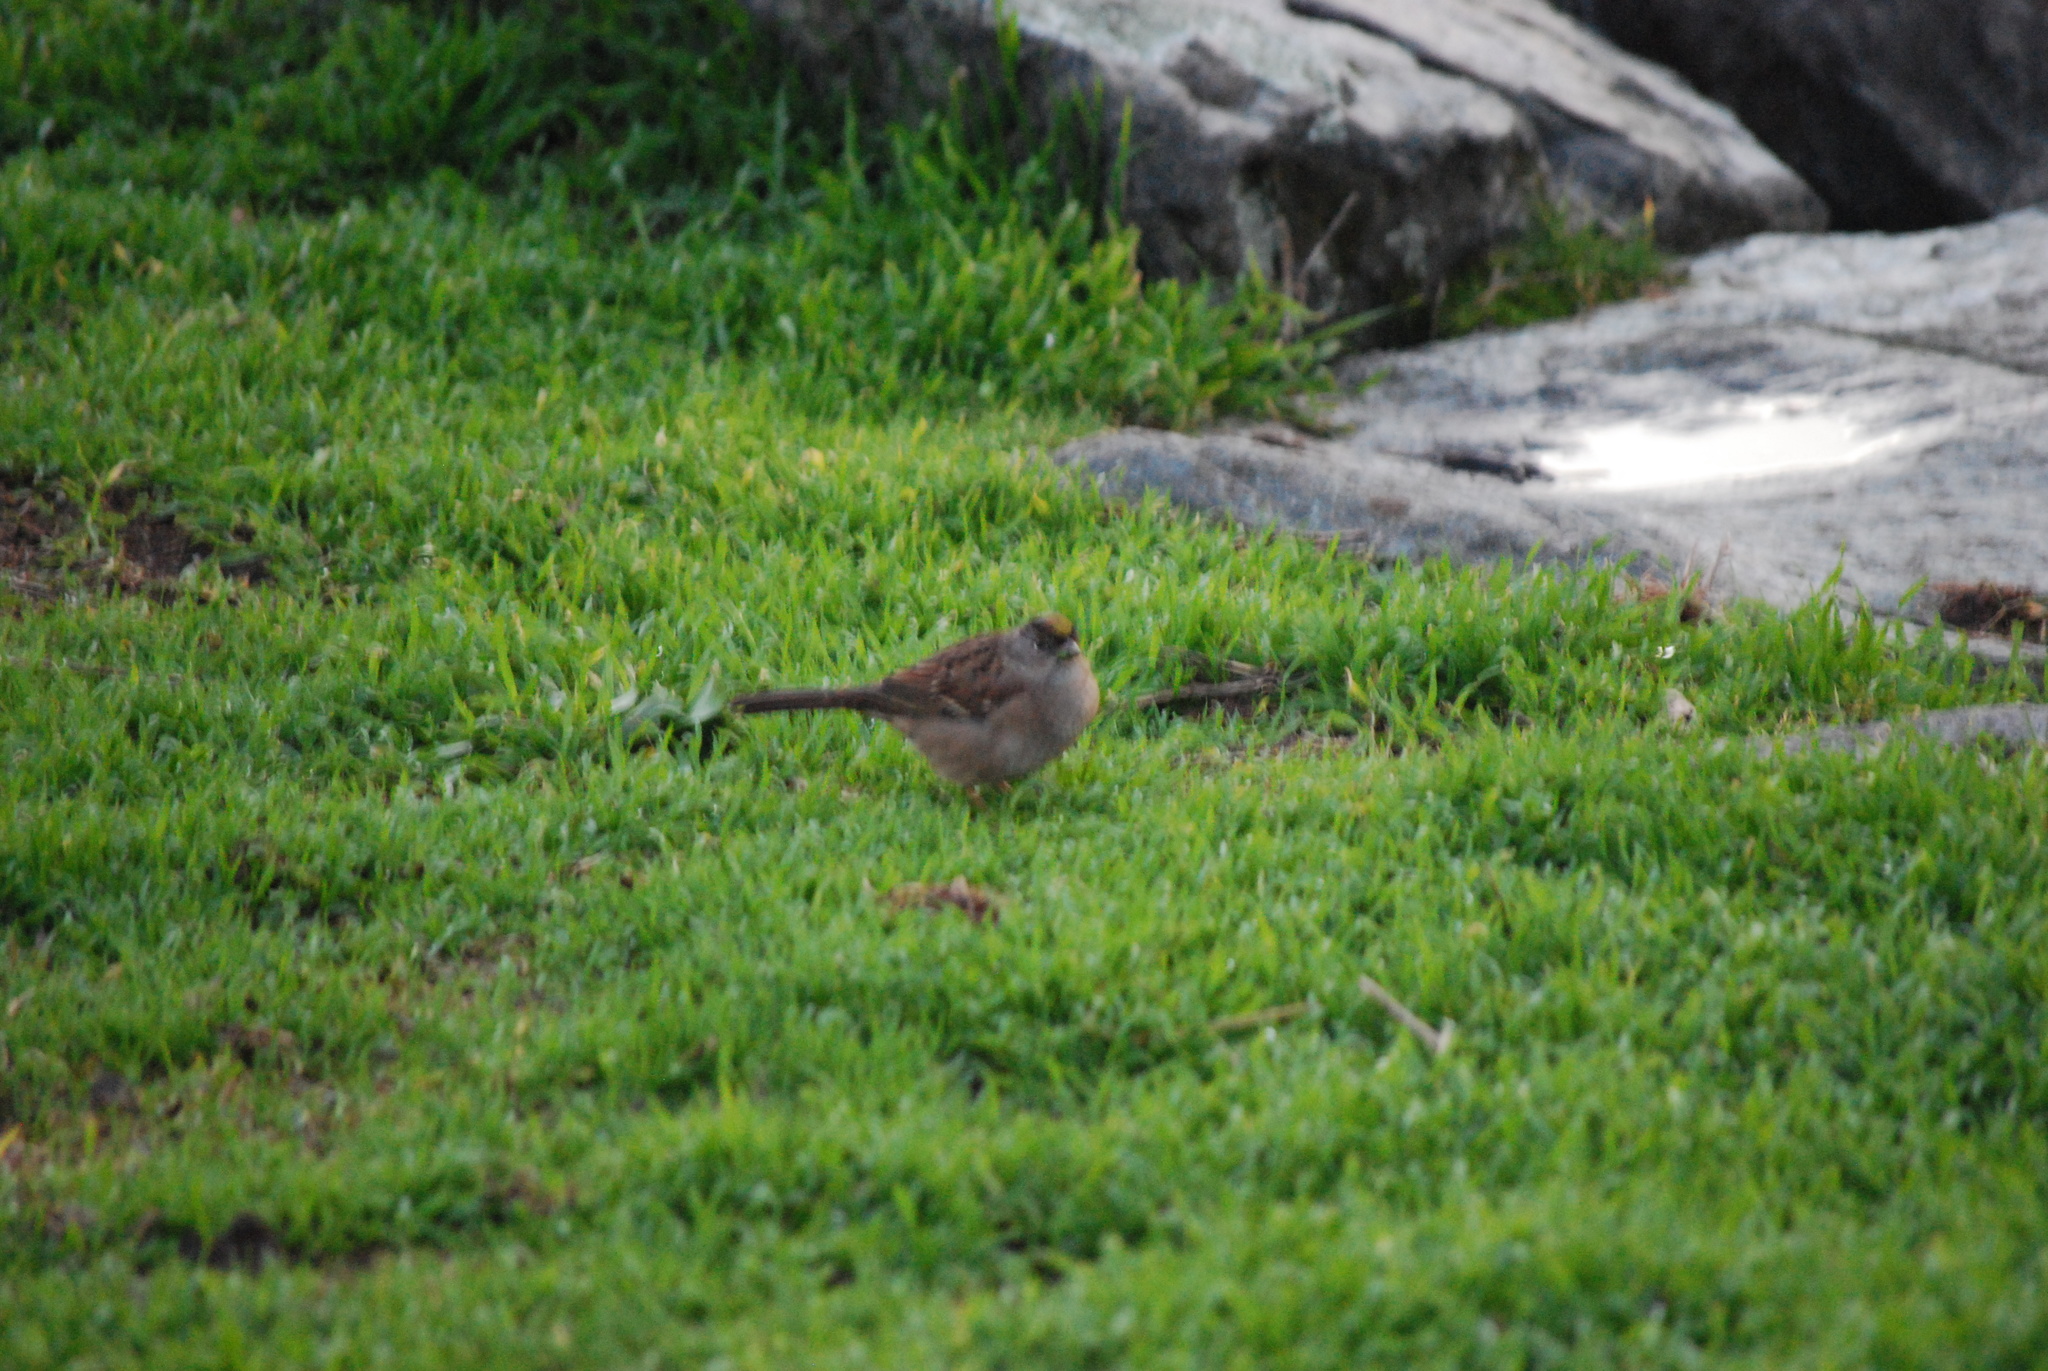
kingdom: Animalia
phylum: Chordata
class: Aves
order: Passeriformes
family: Passerellidae
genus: Zonotrichia
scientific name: Zonotrichia atricapilla
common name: Golden-crowned sparrow
